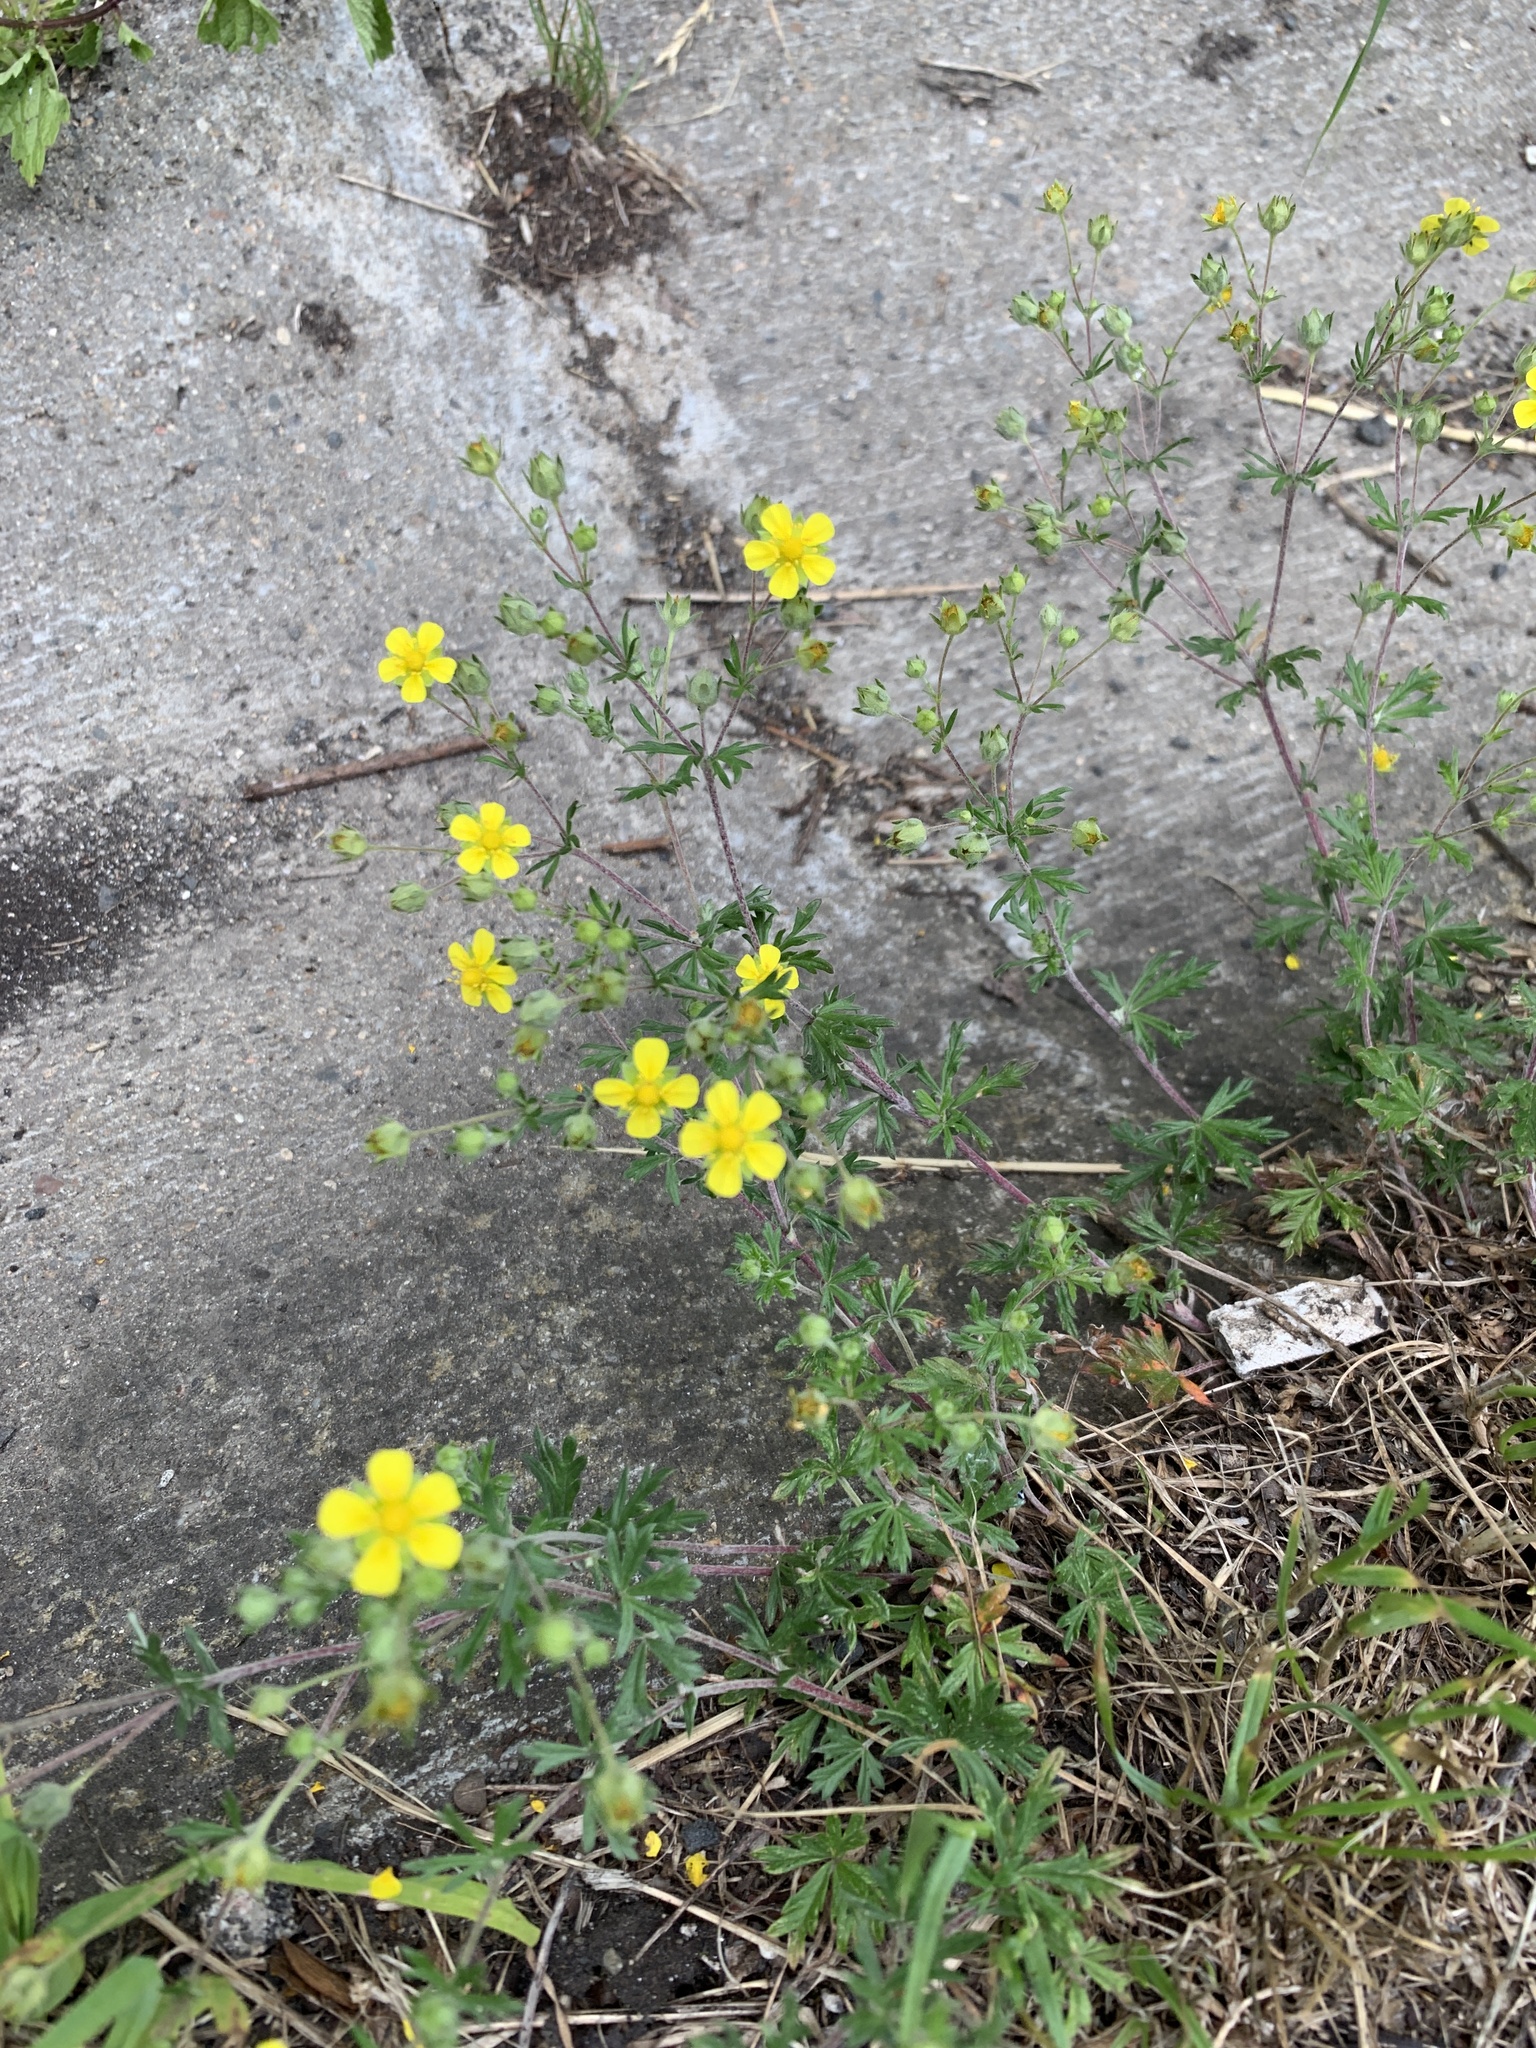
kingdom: Plantae
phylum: Tracheophyta
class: Magnoliopsida
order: Rosales
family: Rosaceae
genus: Potentilla
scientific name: Potentilla argentea
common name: Hoary cinquefoil
